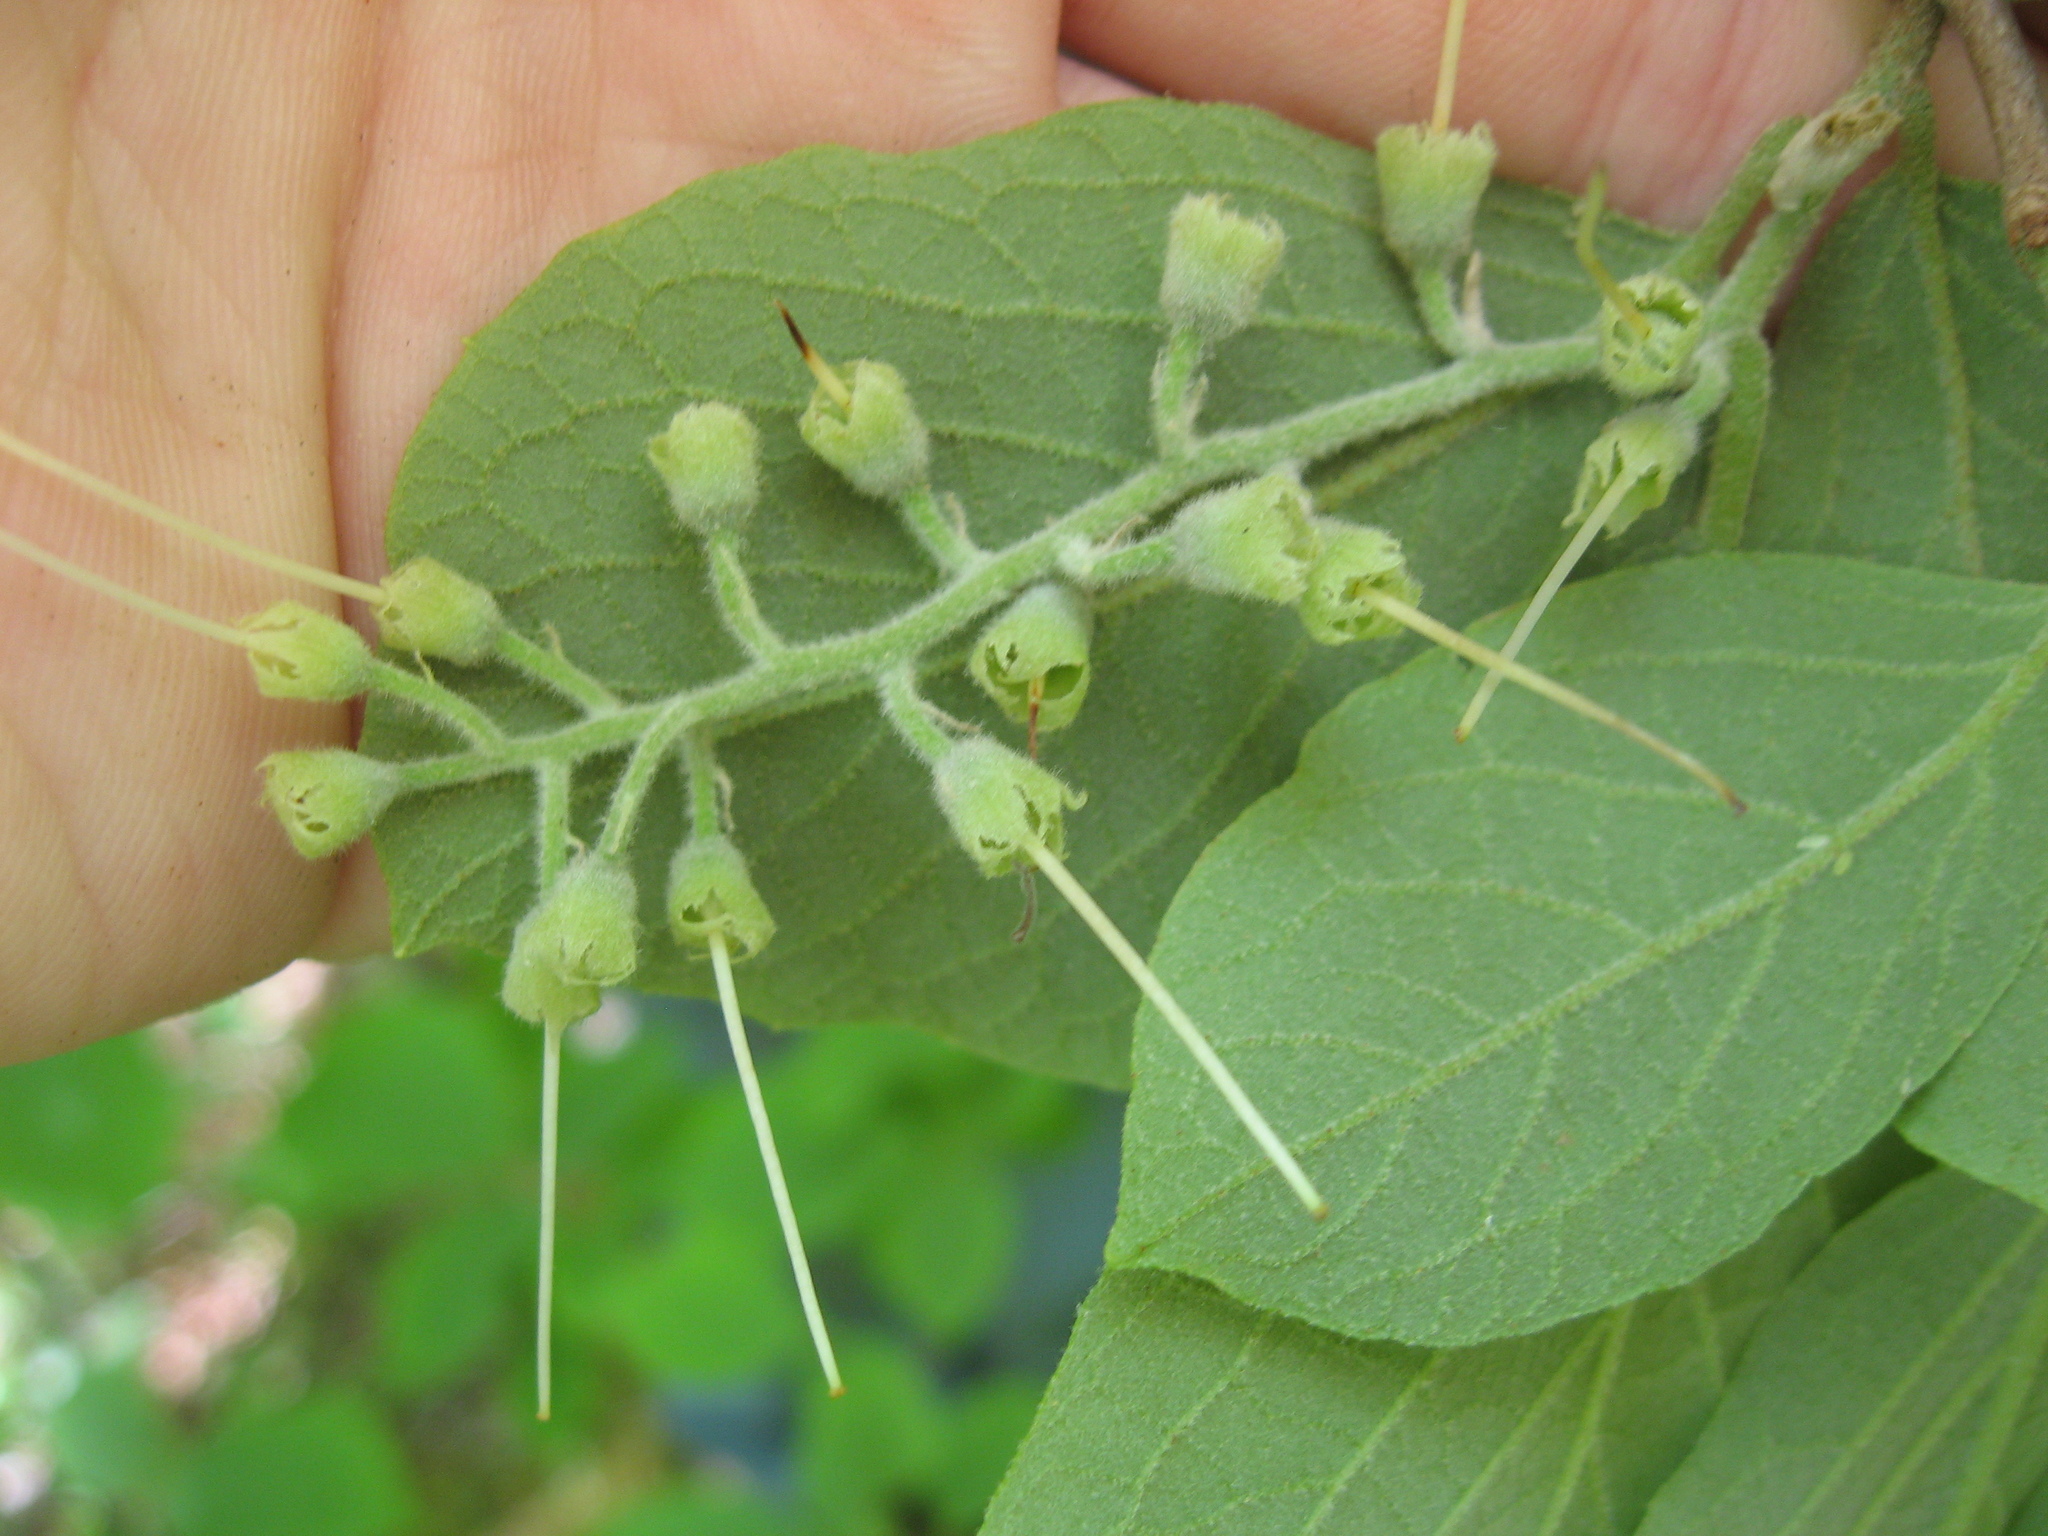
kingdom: Plantae
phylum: Tracheophyta
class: Magnoliopsida
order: Ericales
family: Styracaceae
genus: Styrax
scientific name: Styrax grandifolius
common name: Big-leaf snowbell
